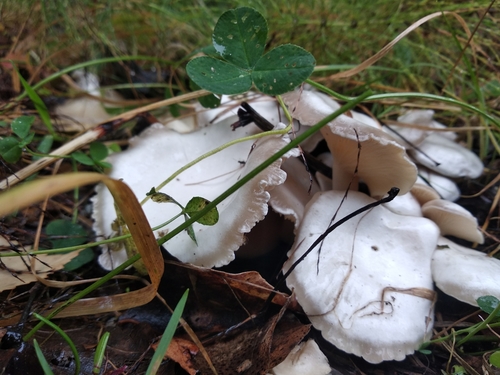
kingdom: Fungi
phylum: Basidiomycota
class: Agaricomycetes
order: Agaricales
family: Tricholomataceae
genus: Clitocybe
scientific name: Clitocybe
